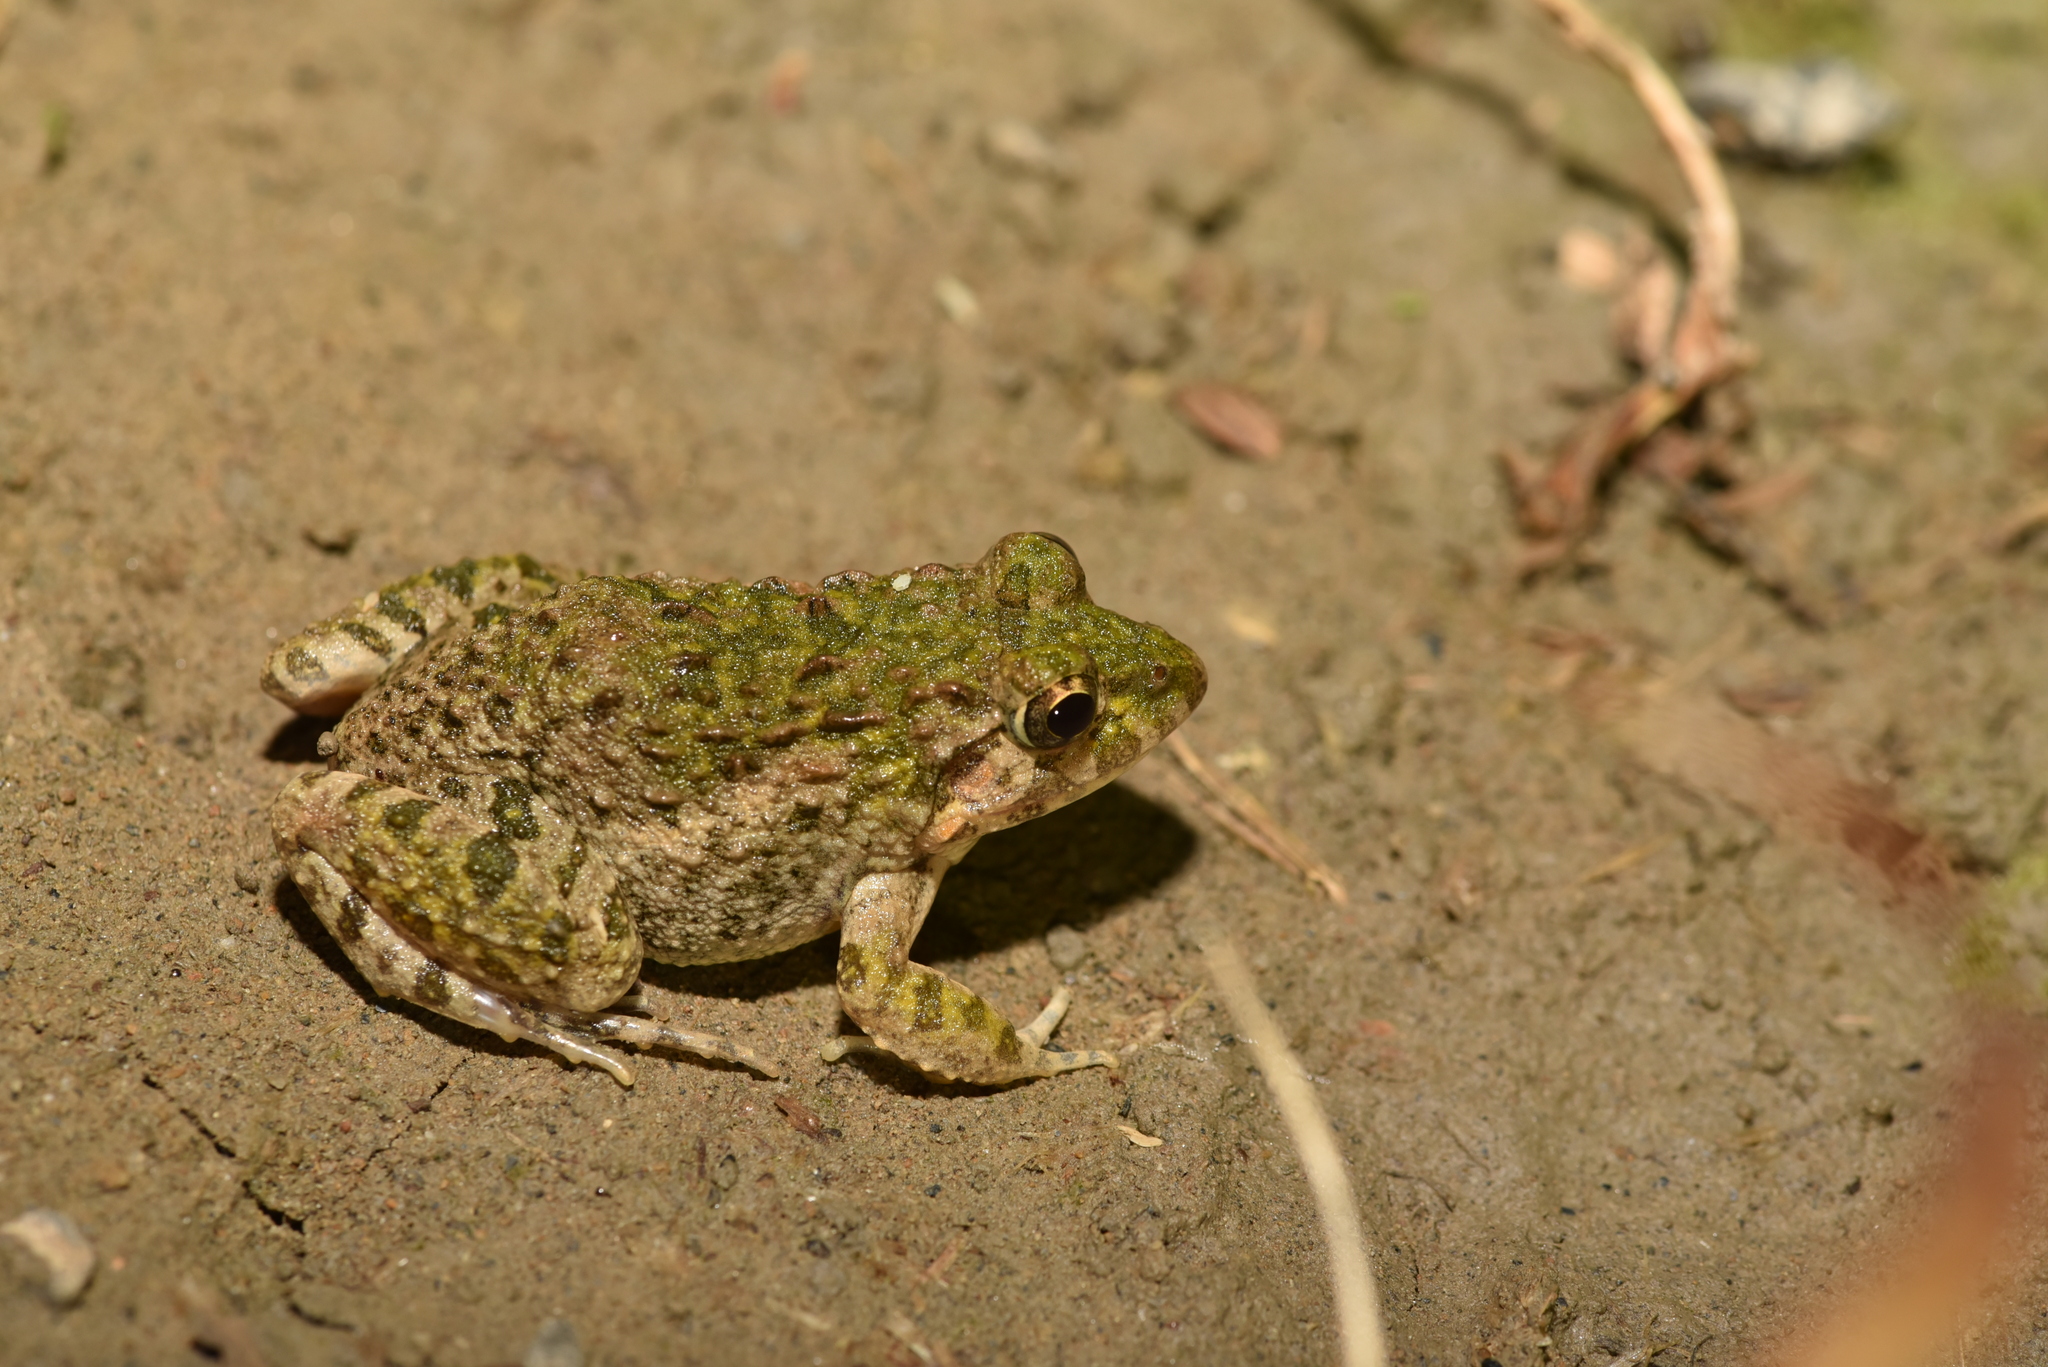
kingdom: Animalia
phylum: Chordata
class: Amphibia
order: Anura
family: Dicroglossidae
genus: Fejervarya
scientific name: Fejervarya limnocharis
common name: Asian grass frog/common pond frog/field frog/grass frog/indian rice frog
